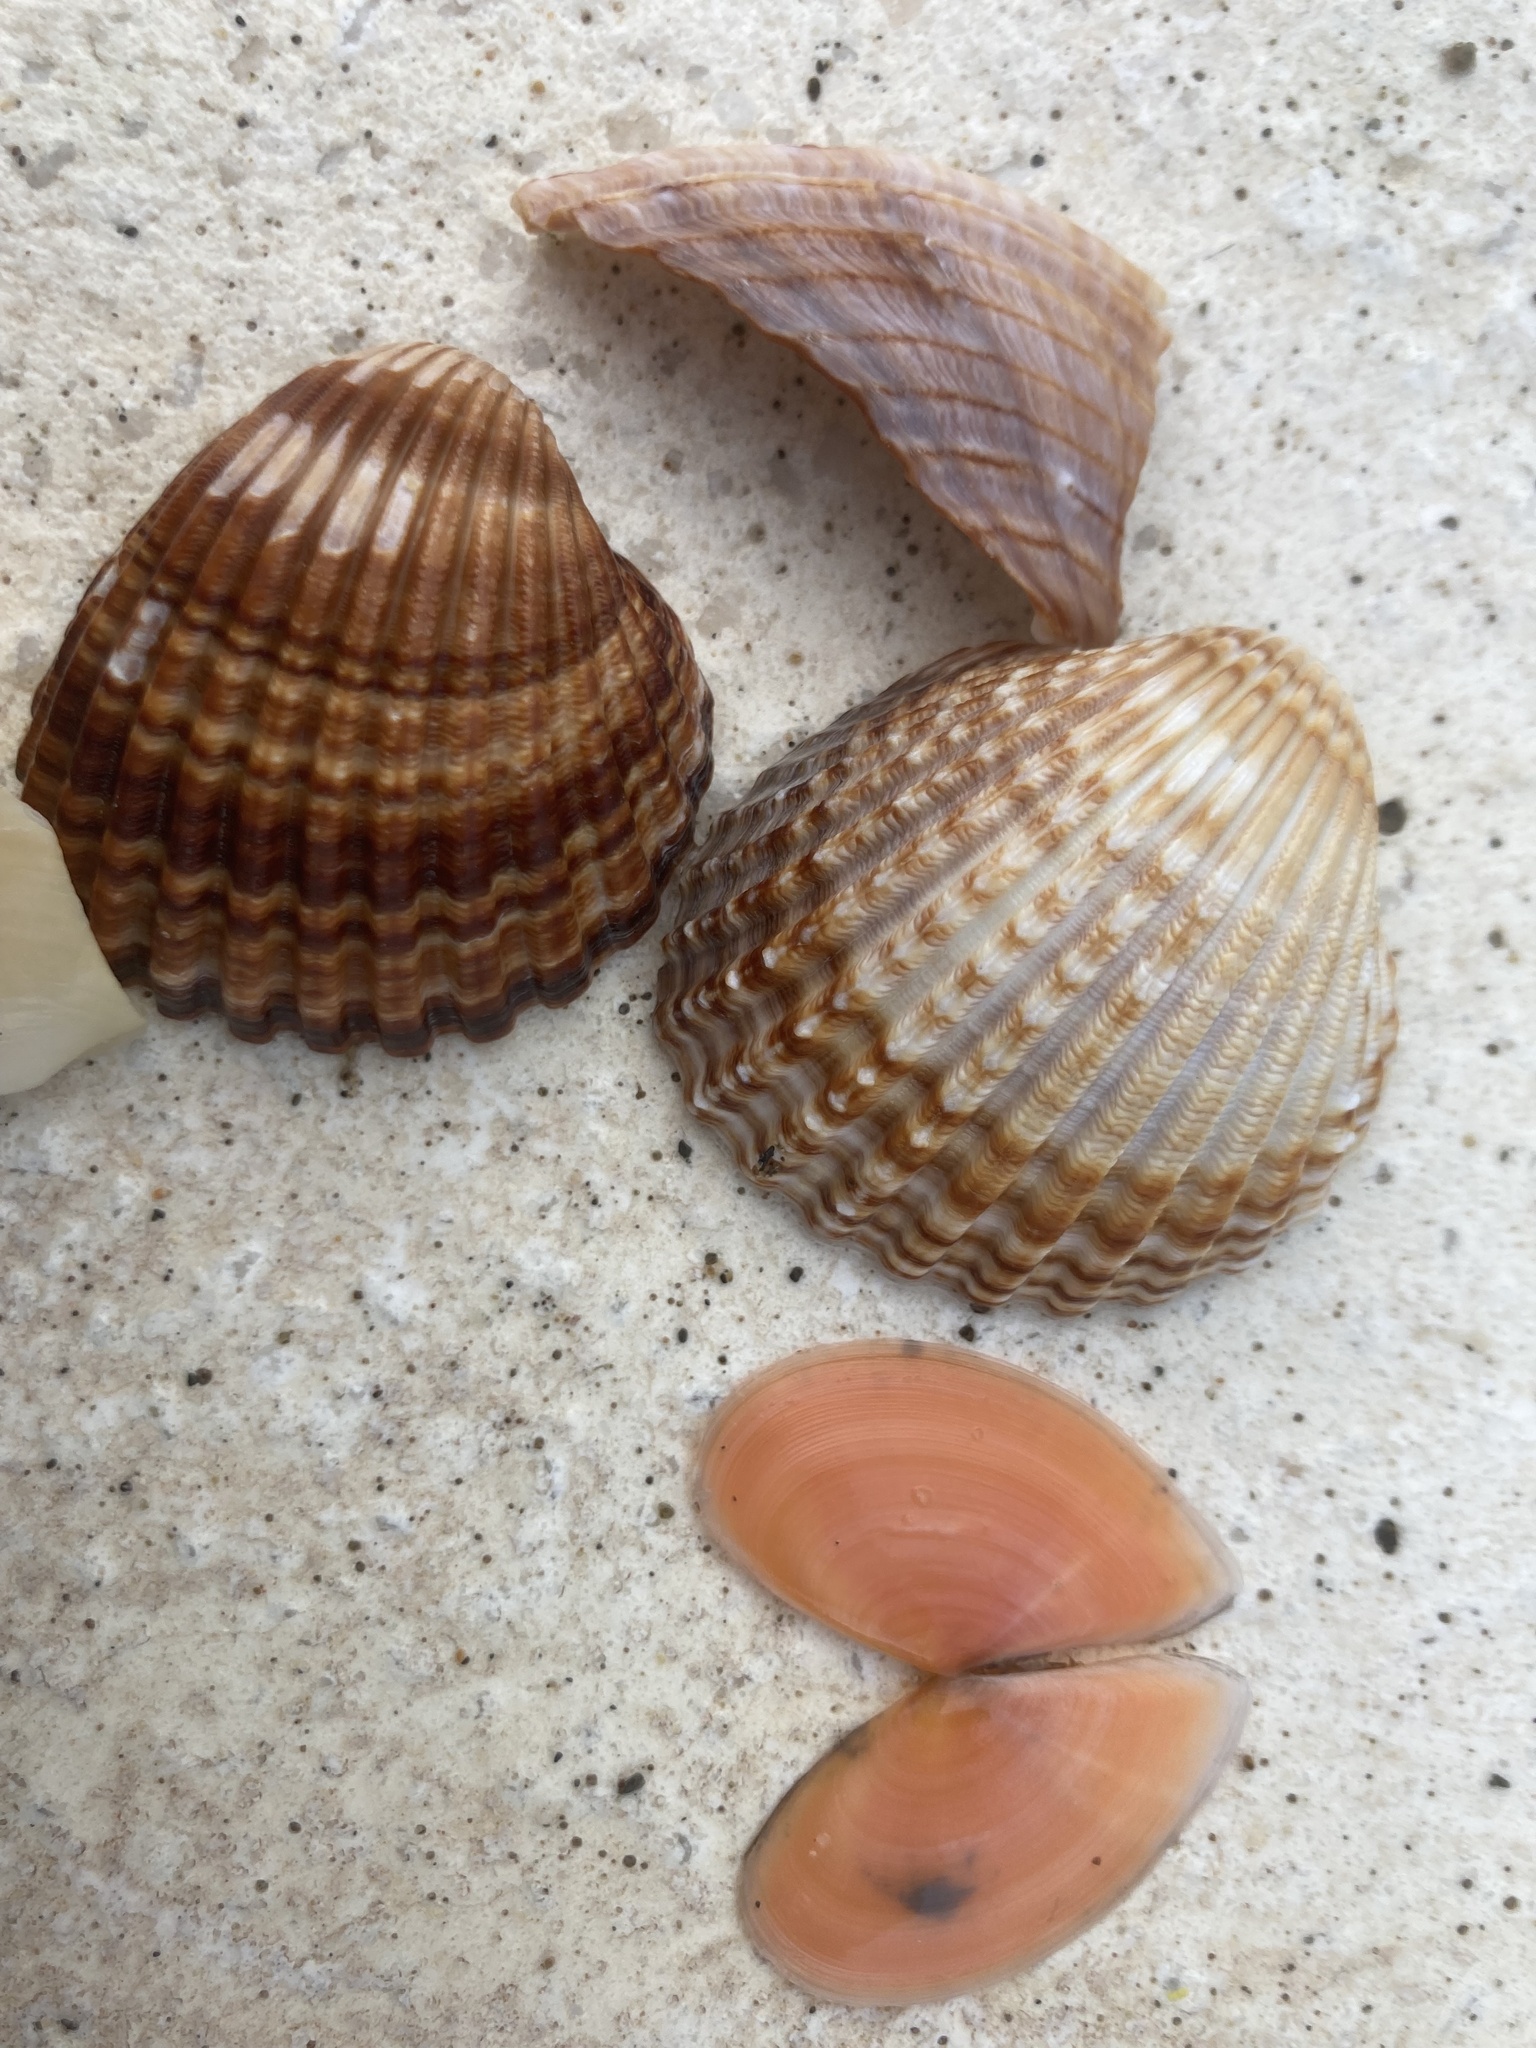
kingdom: Animalia
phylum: Mollusca
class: Bivalvia
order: Cardiida
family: Cardiidae
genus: Acanthocardia
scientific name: Acanthocardia echinata
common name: Prickly cockle
